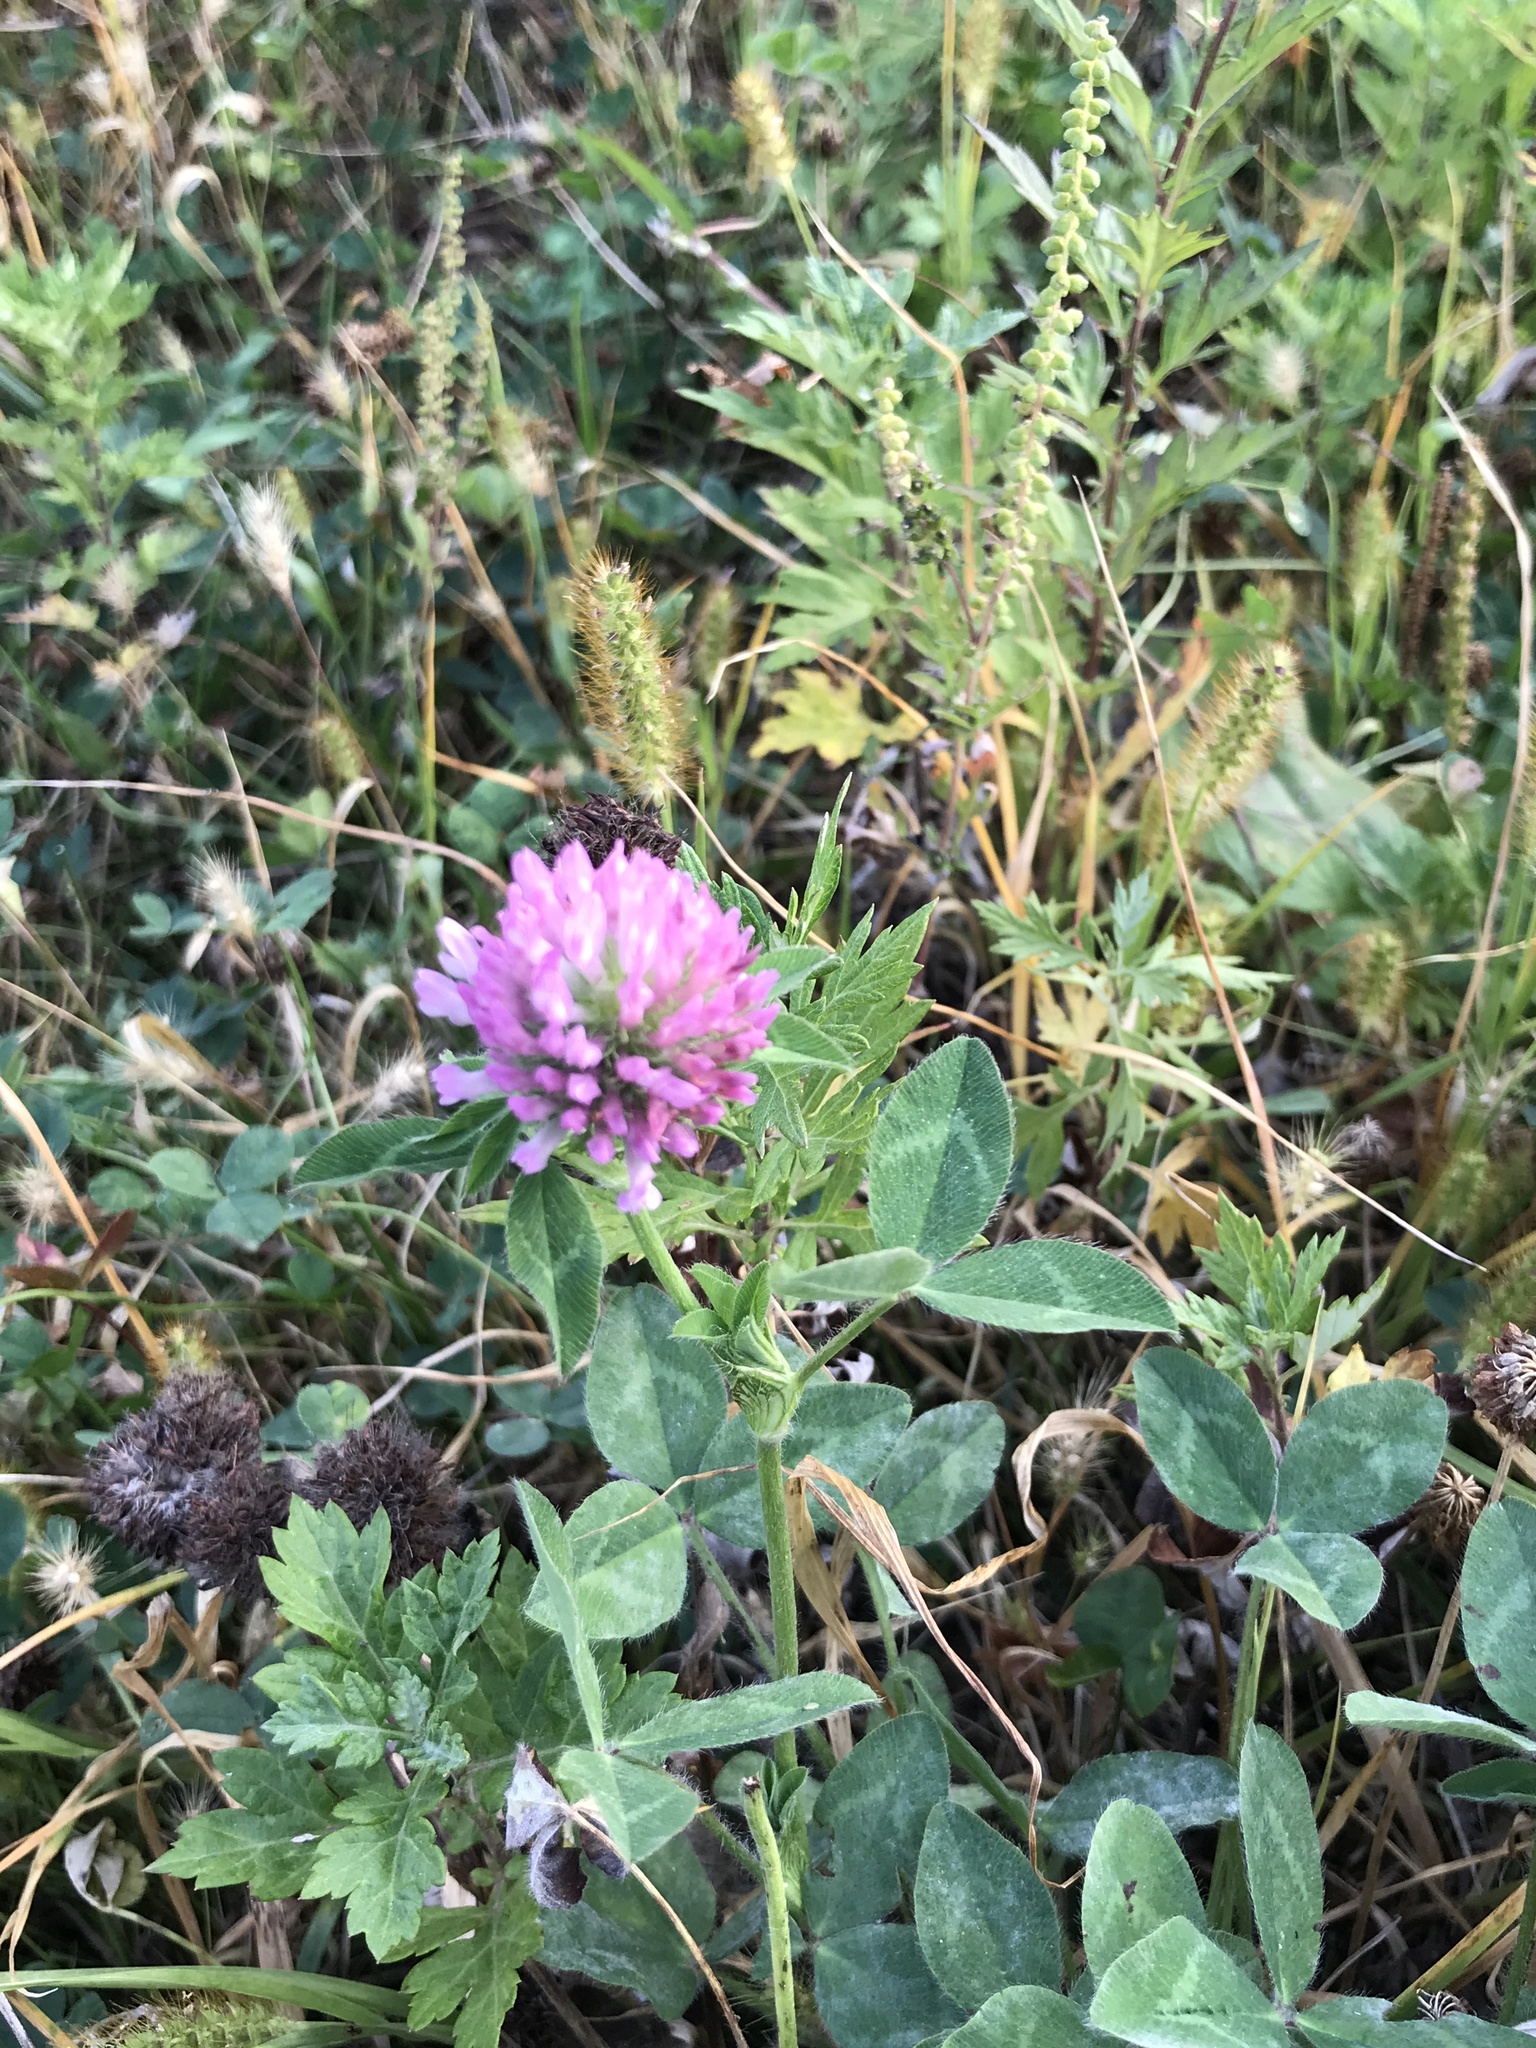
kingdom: Plantae
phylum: Tracheophyta
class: Magnoliopsida
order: Fabales
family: Fabaceae
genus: Trifolium
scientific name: Trifolium pratense
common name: Red clover
